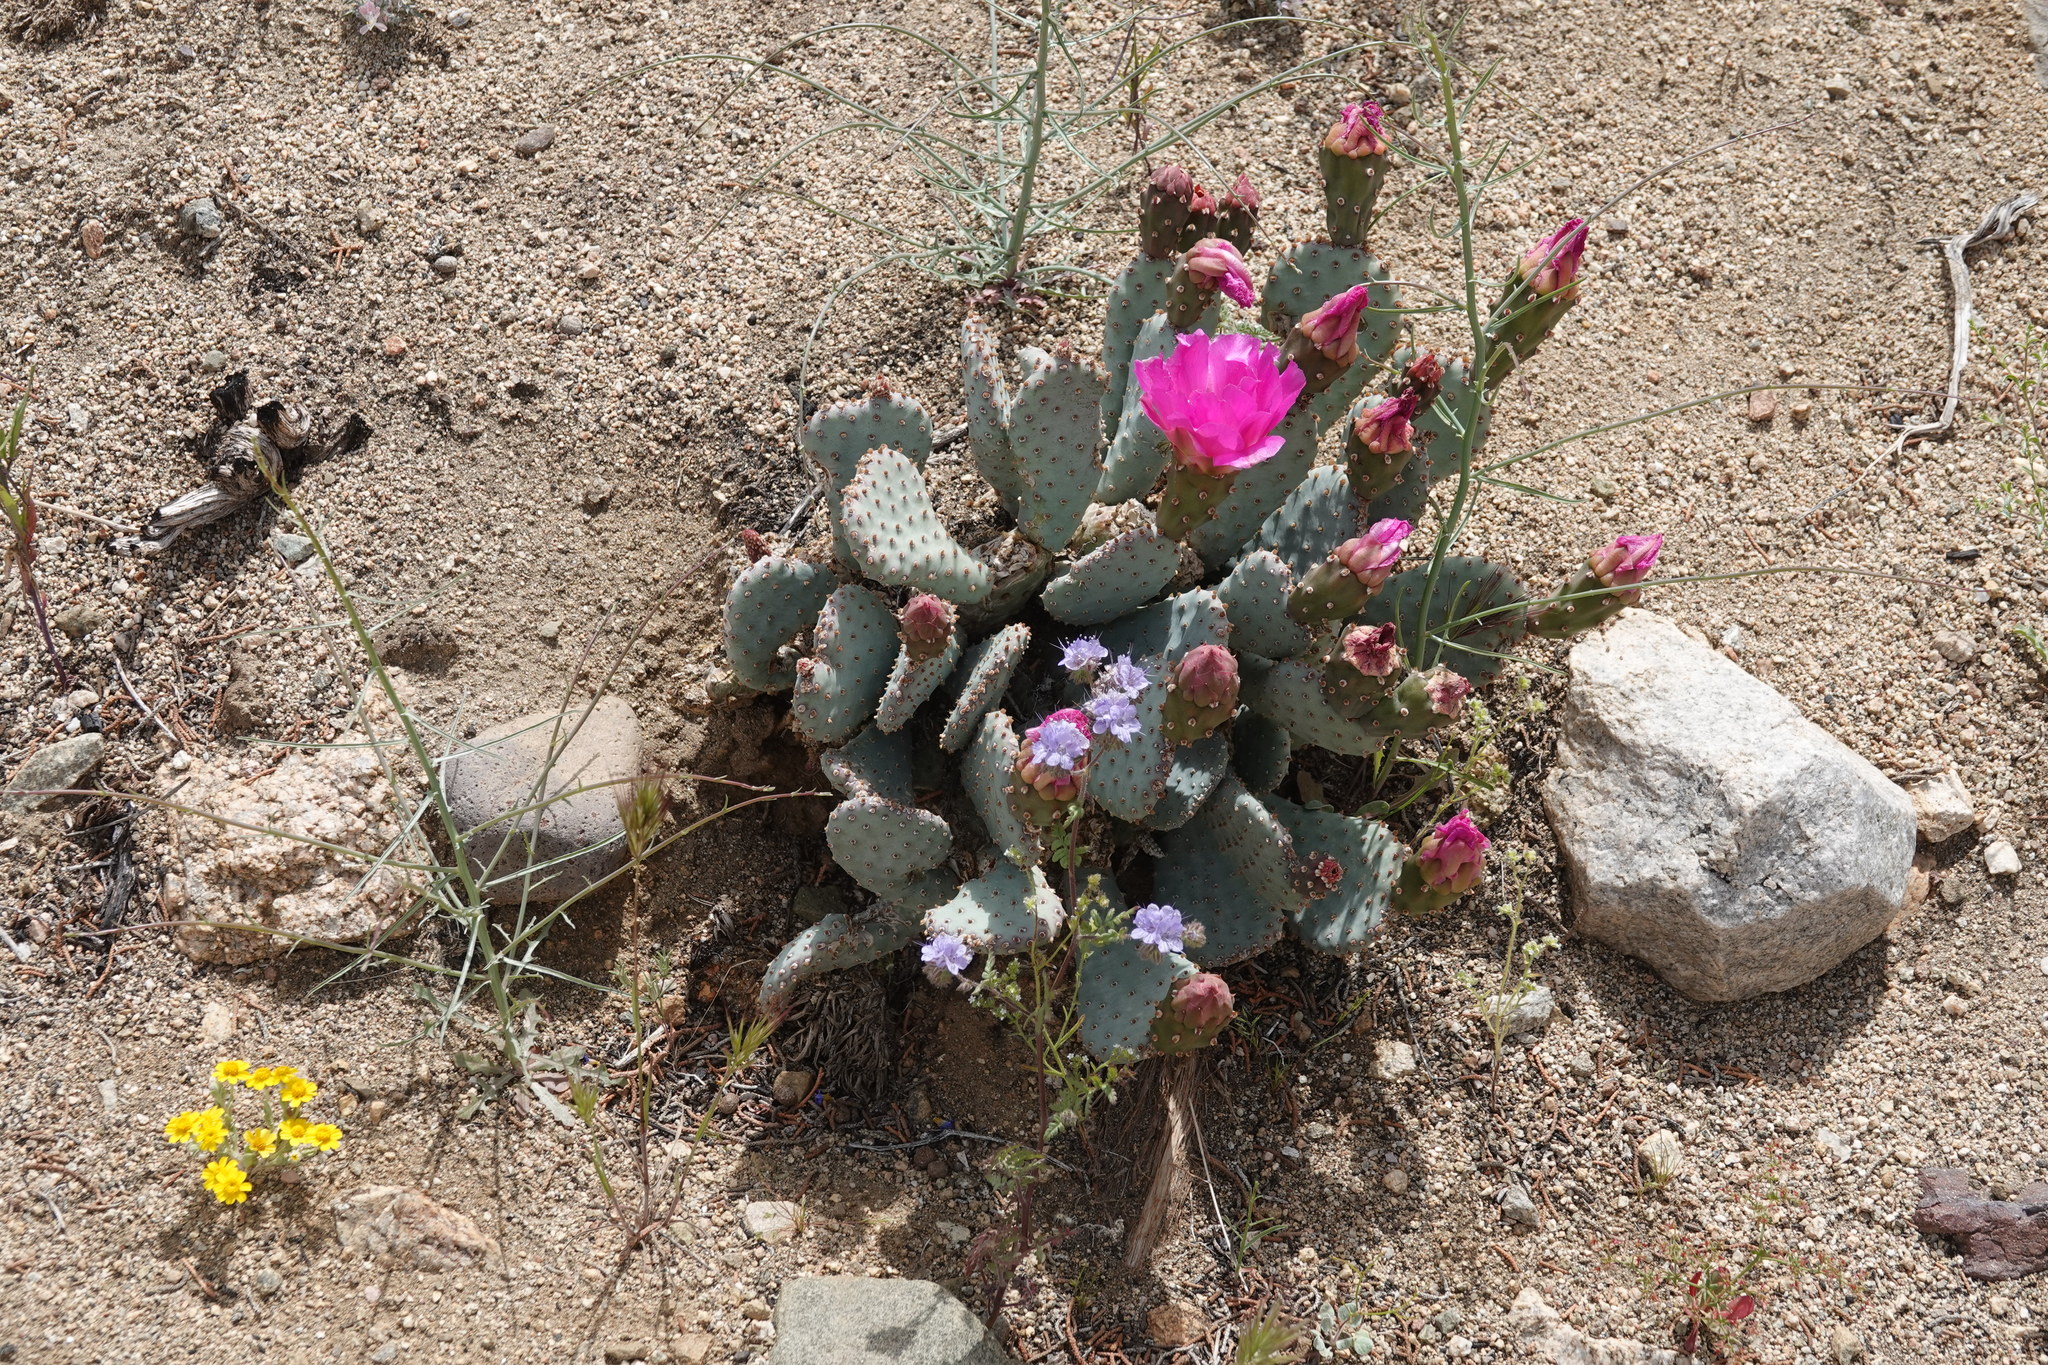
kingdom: Plantae
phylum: Tracheophyta
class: Magnoliopsida
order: Caryophyllales
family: Cactaceae
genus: Opuntia
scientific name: Opuntia basilaris
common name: Beavertail prickly-pear
